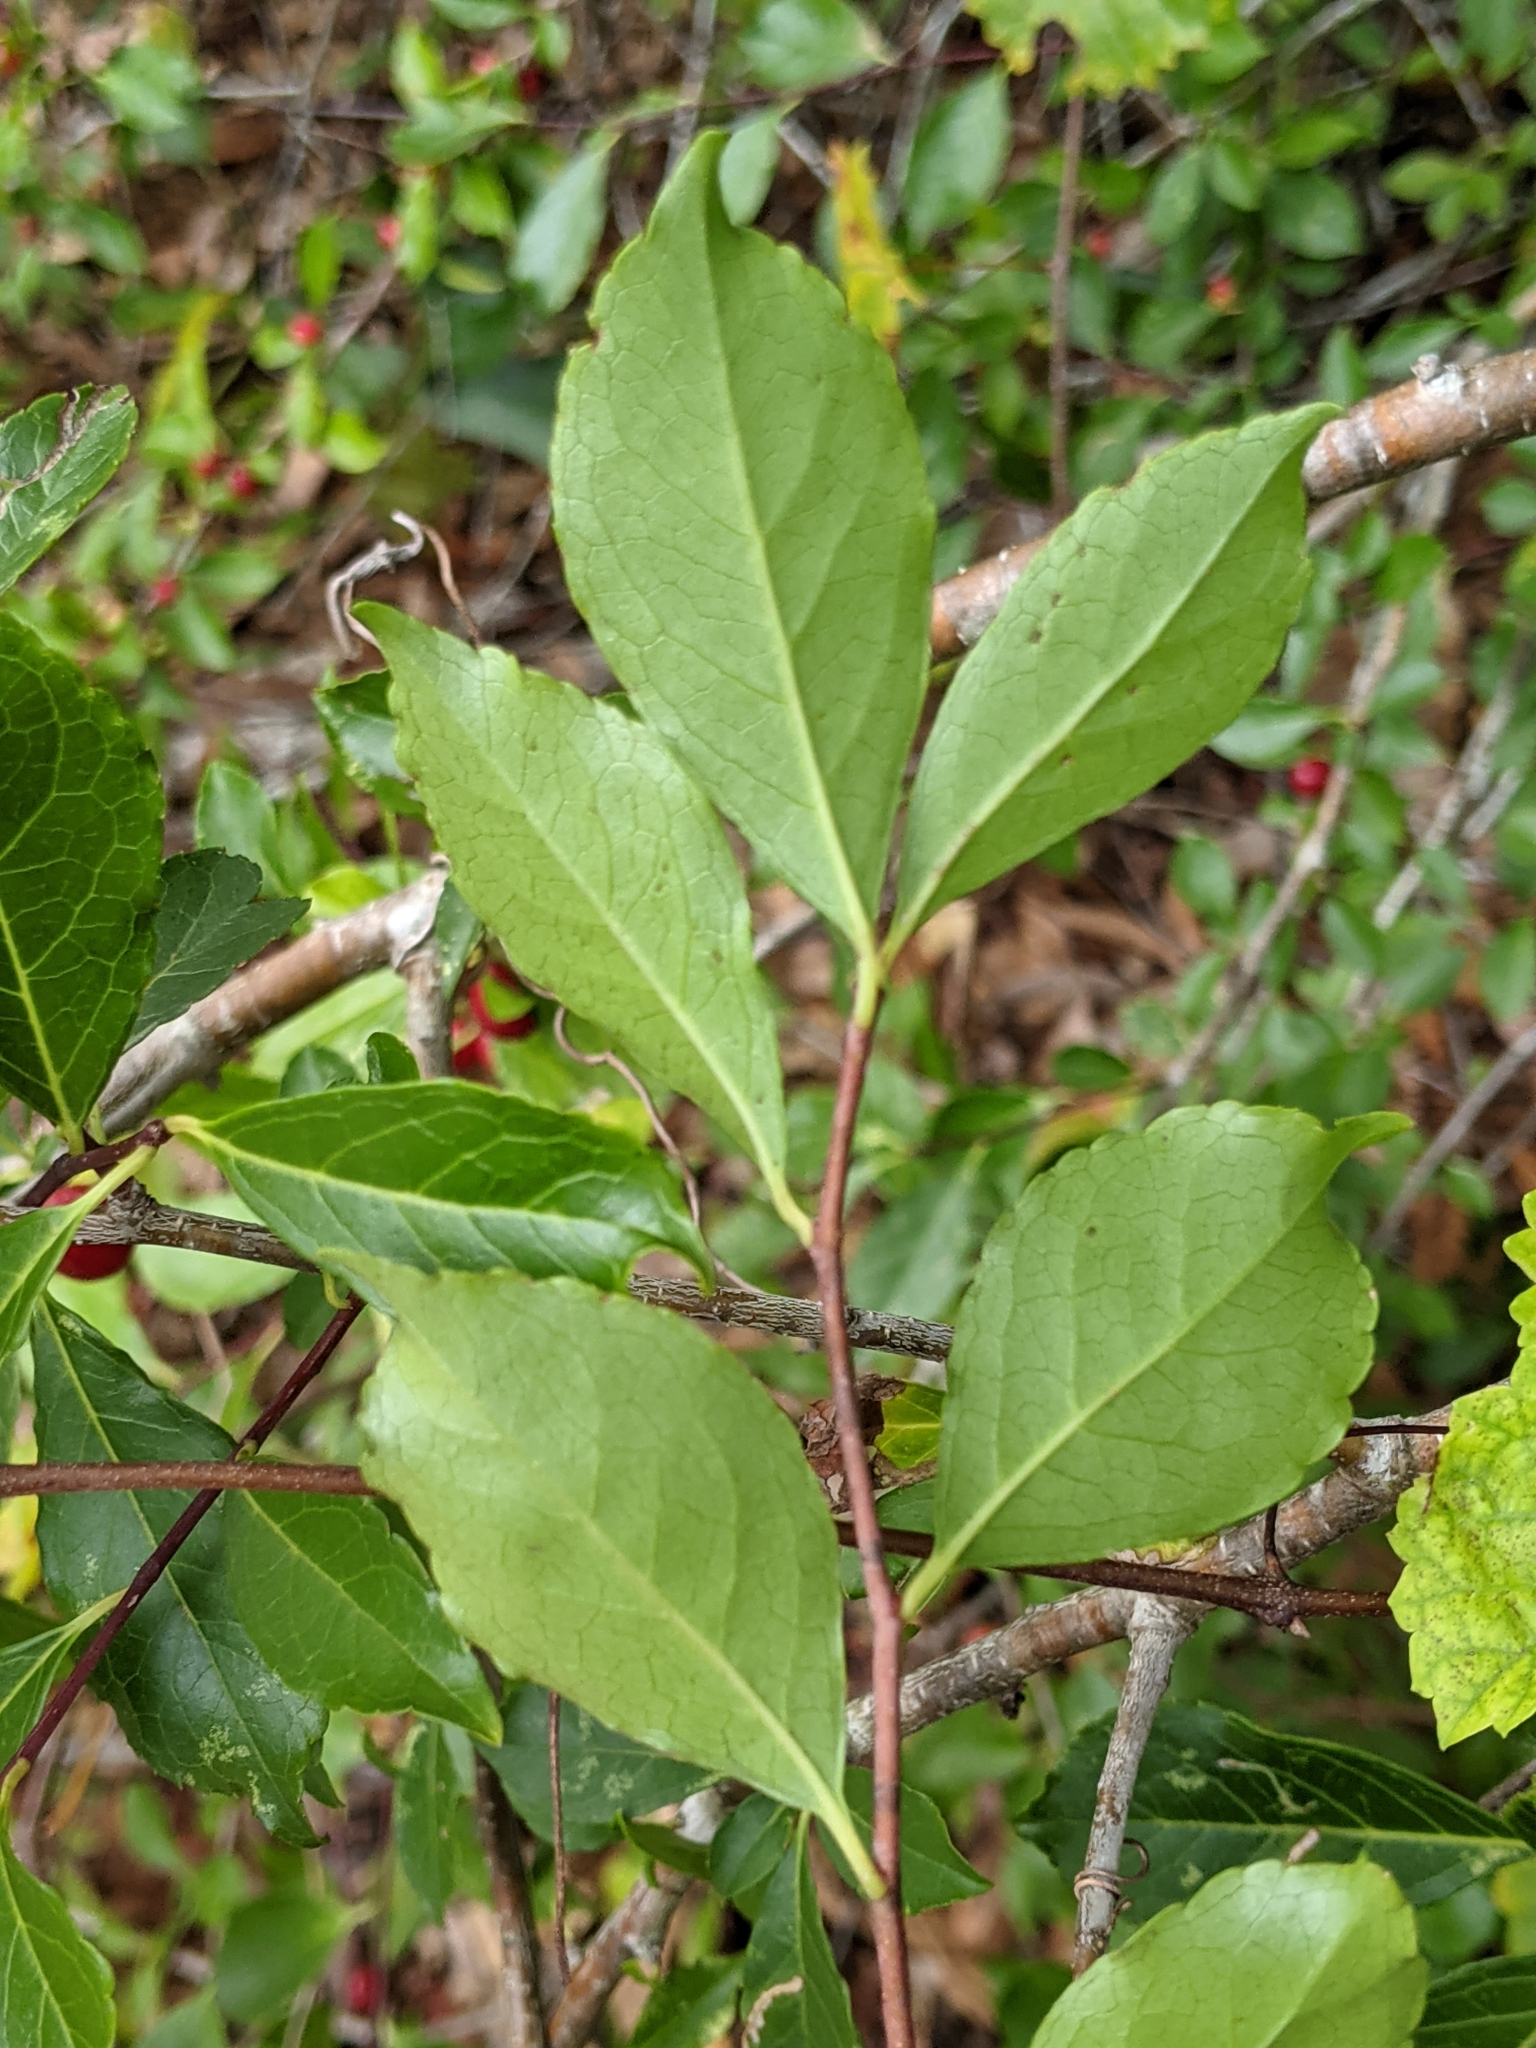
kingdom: Plantae
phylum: Tracheophyta
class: Magnoliopsida
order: Aquifoliales
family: Aquifoliaceae
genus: Ilex
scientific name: Ilex ambigua
